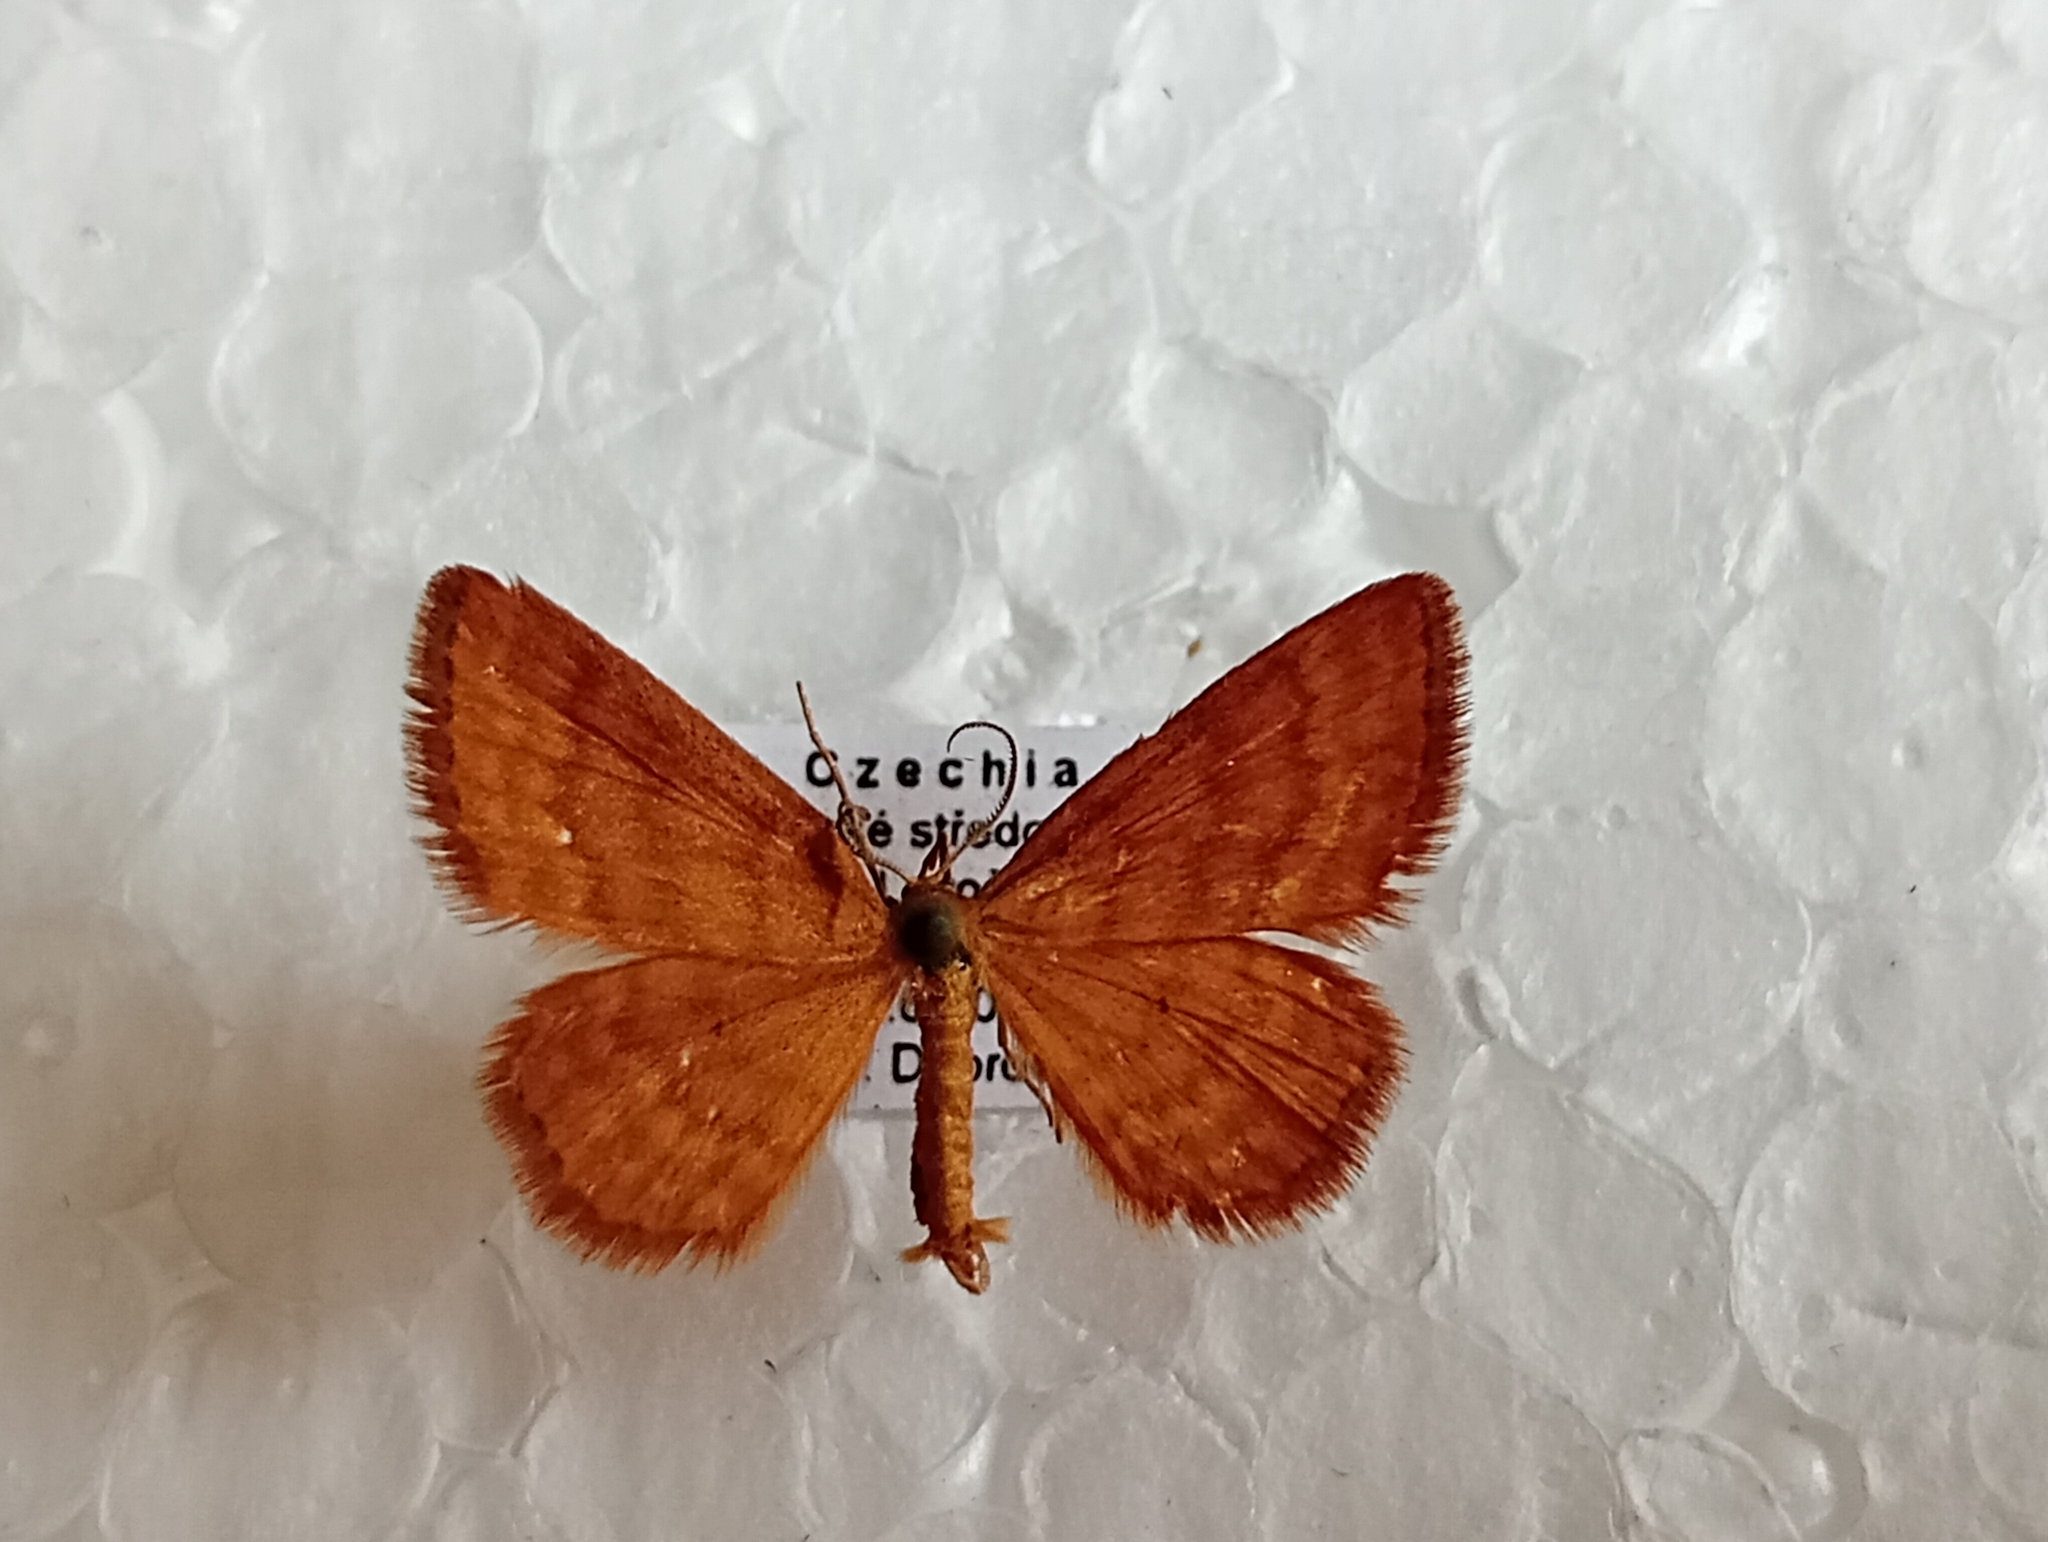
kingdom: Animalia
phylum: Arthropoda
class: Insecta
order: Lepidoptera
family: Geometridae
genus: Idaea
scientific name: Idaea serpentata
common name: Ochraceous wave
